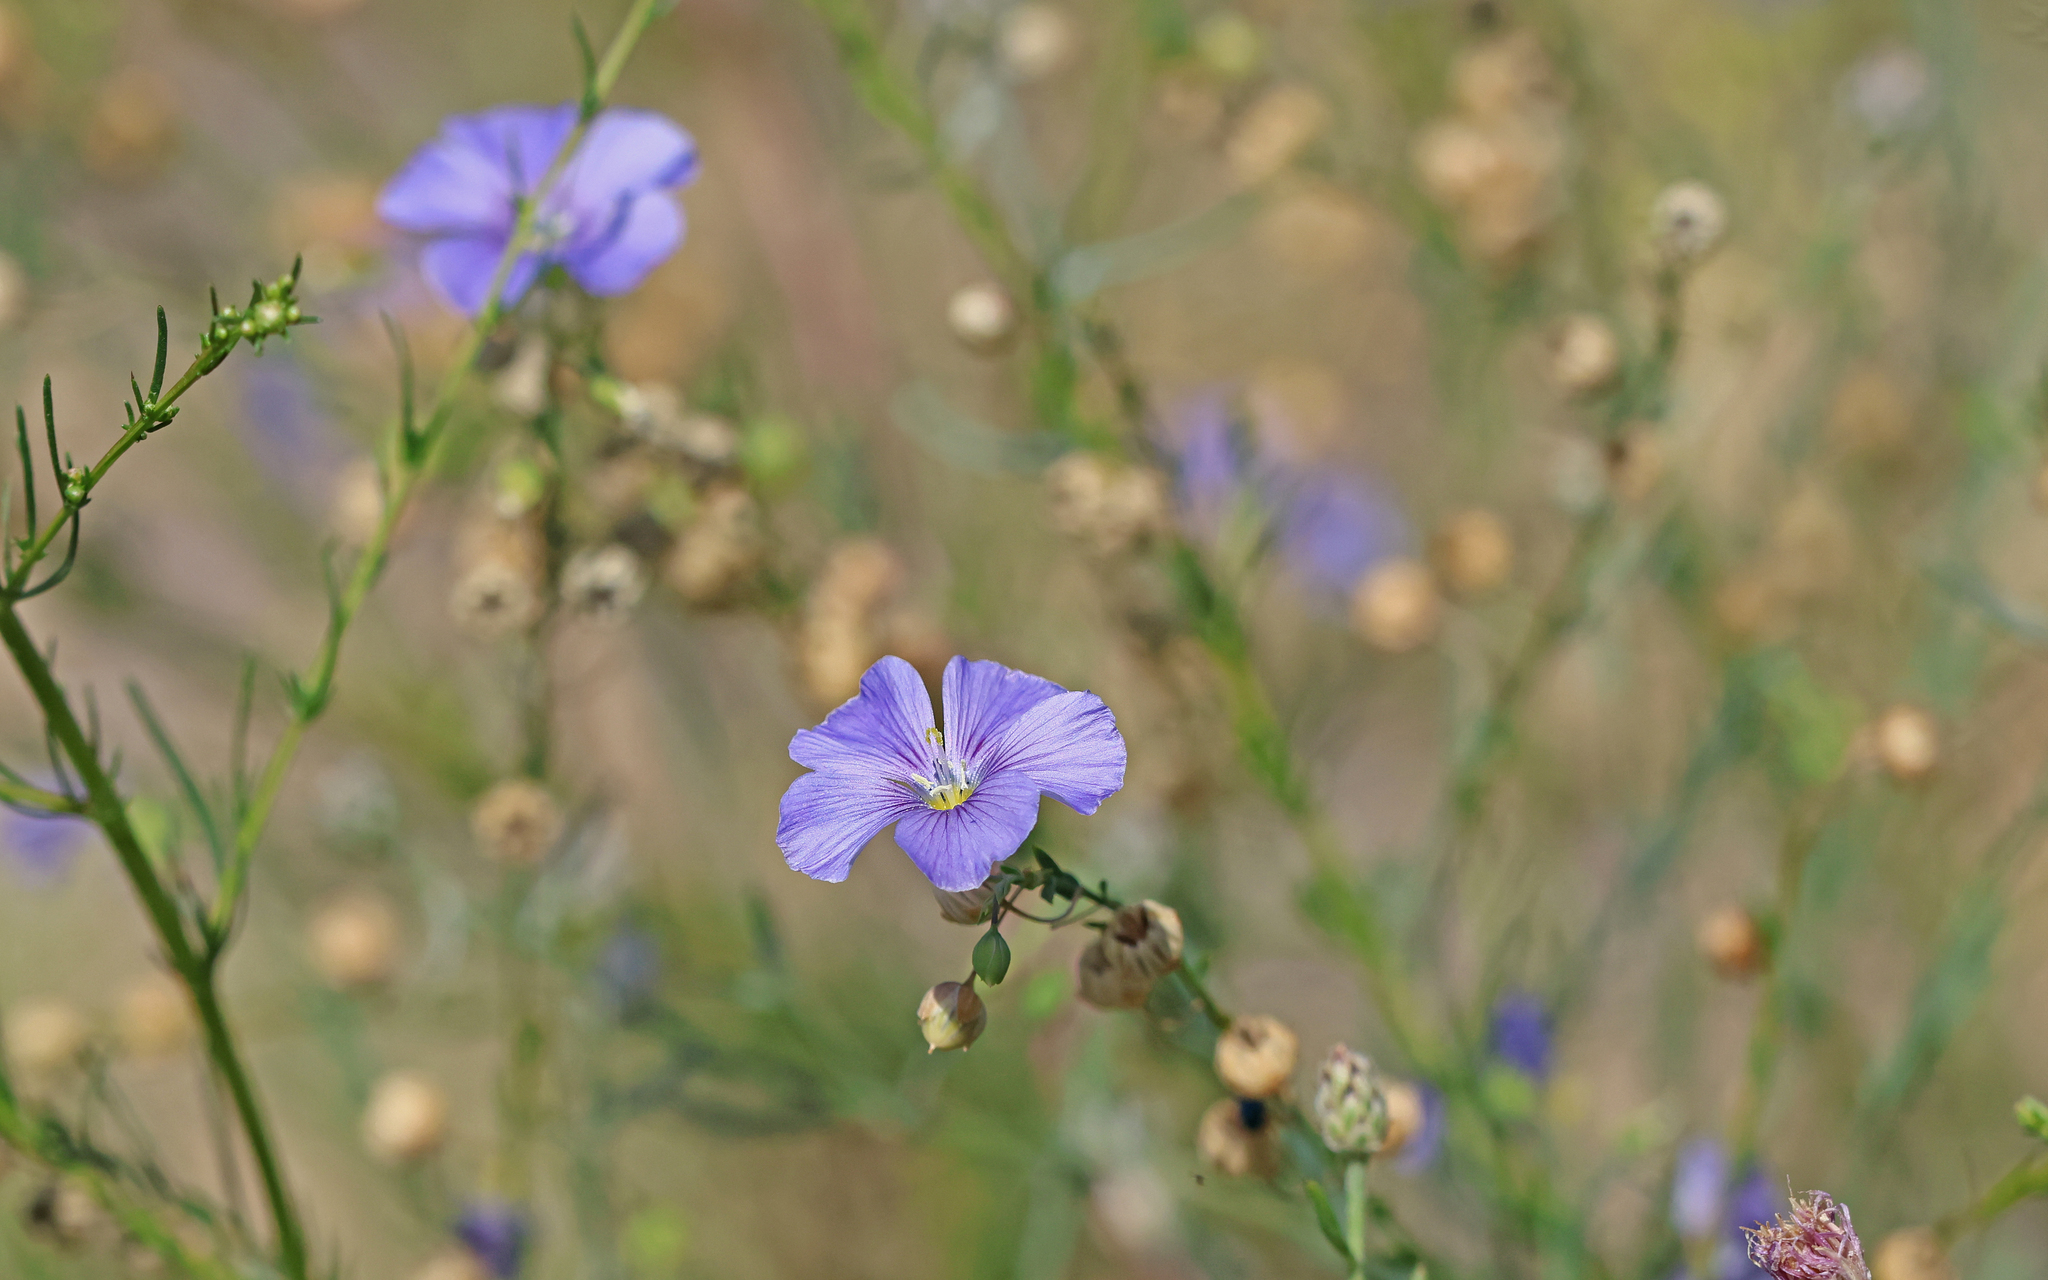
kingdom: Plantae
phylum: Tracheophyta
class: Magnoliopsida
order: Malpighiales
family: Linaceae
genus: Linum
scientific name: Linum austriacum
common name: Austrian flax
